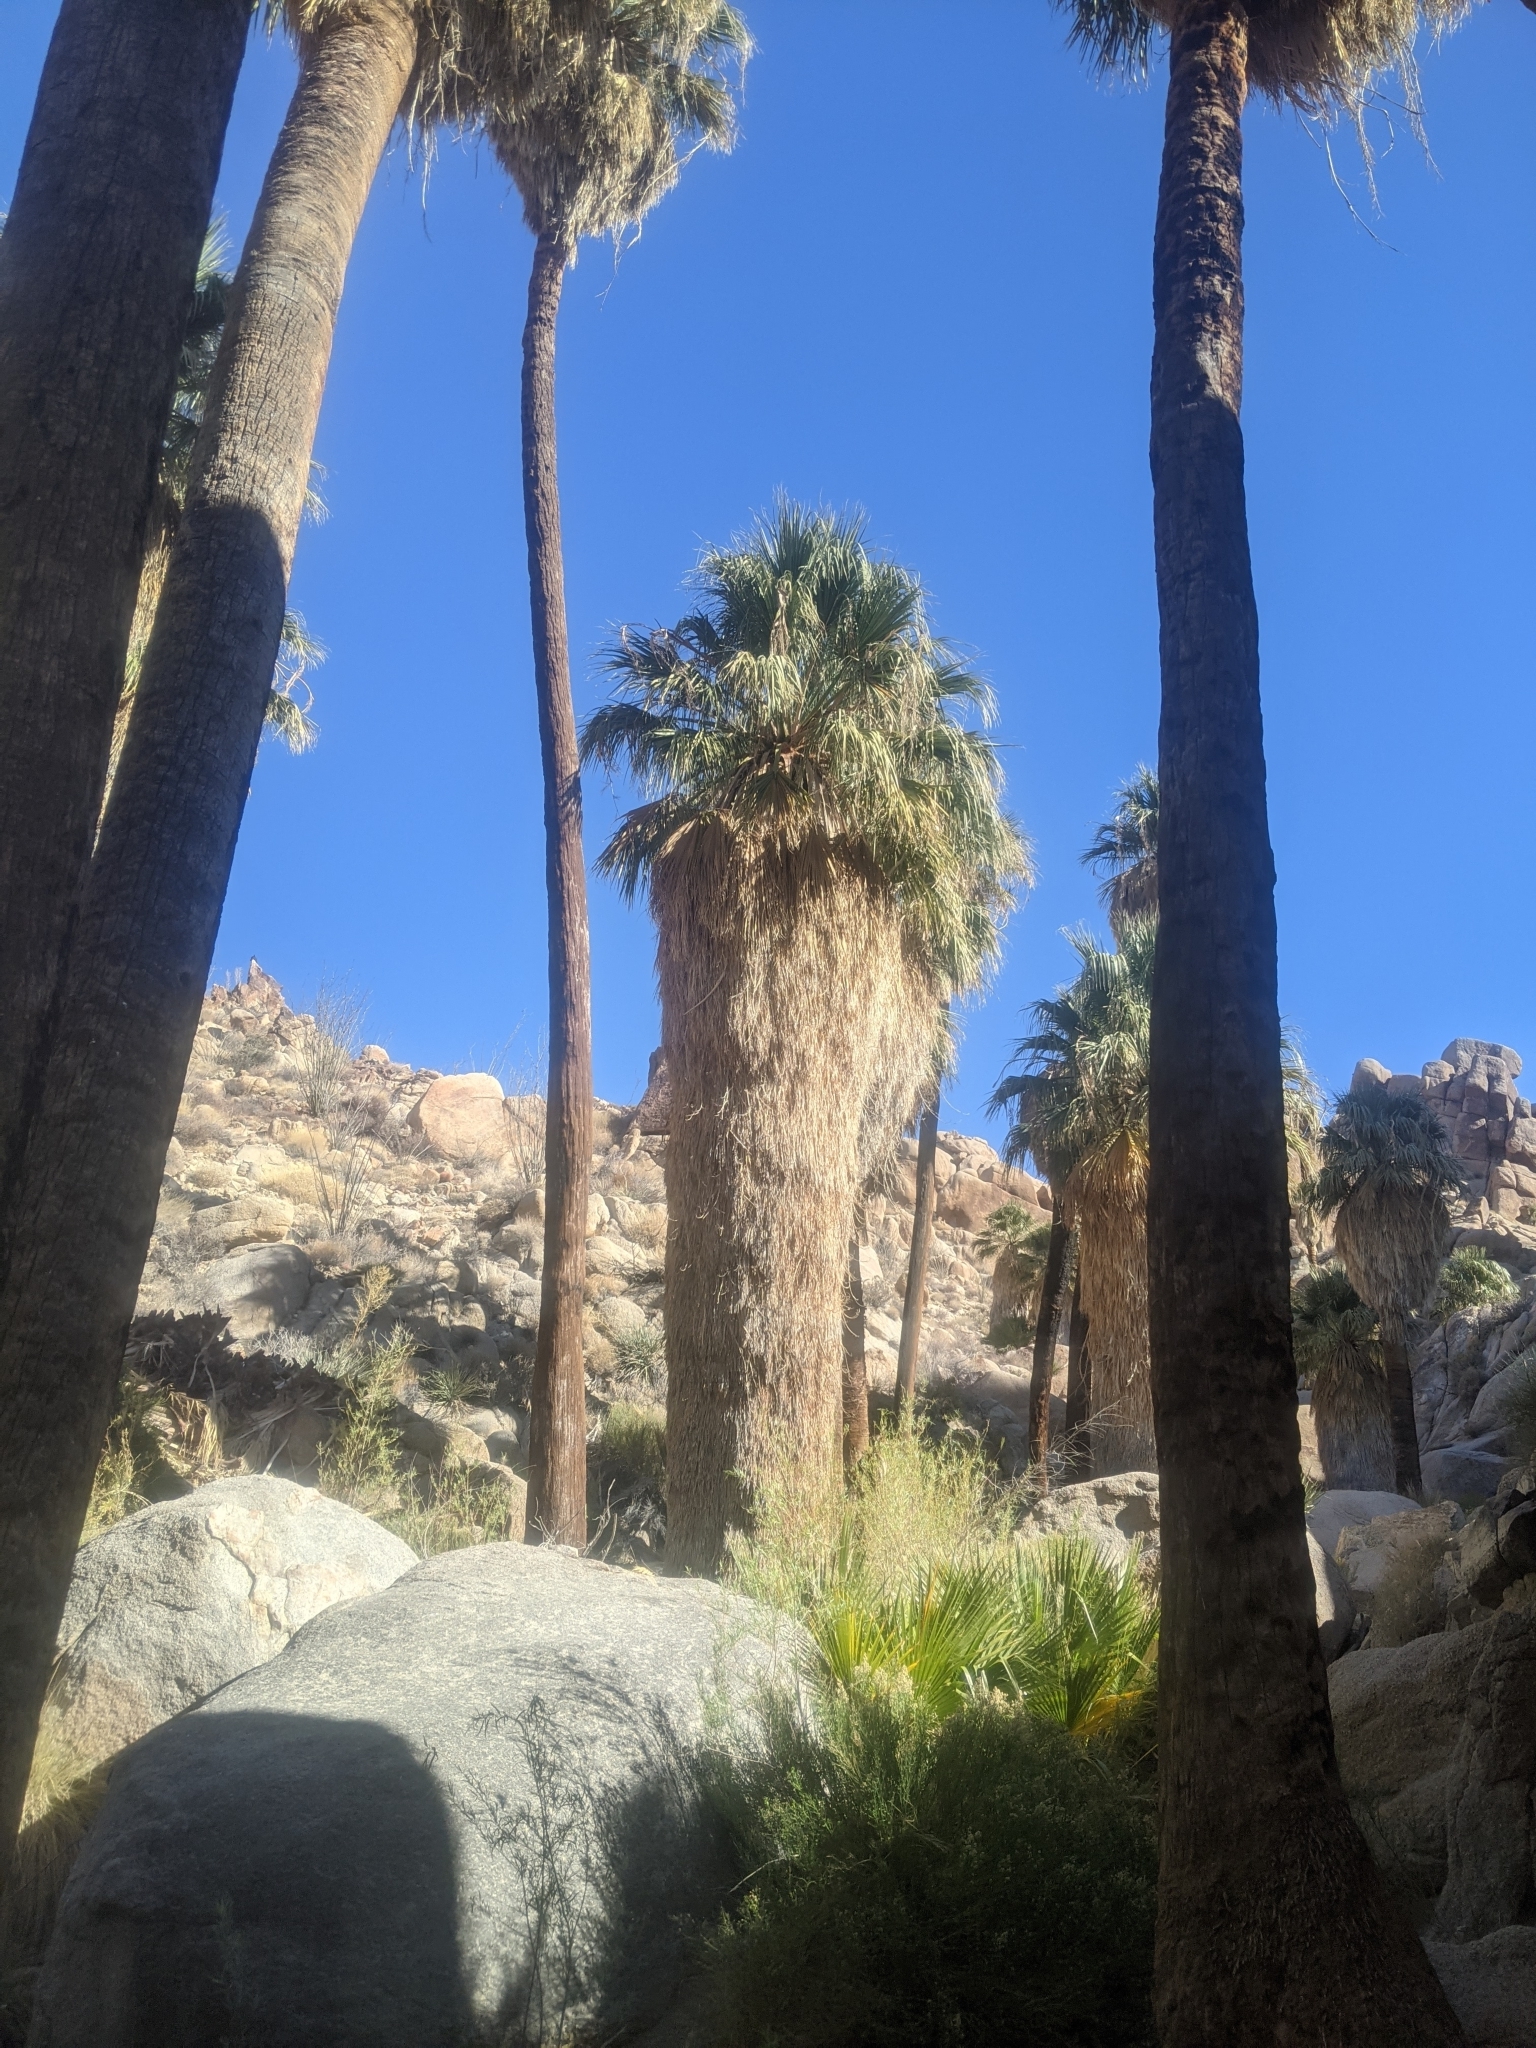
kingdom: Plantae
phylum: Tracheophyta
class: Liliopsida
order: Arecales
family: Arecaceae
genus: Washingtonia
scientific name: Washingtonia filifera
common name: California fan palm
